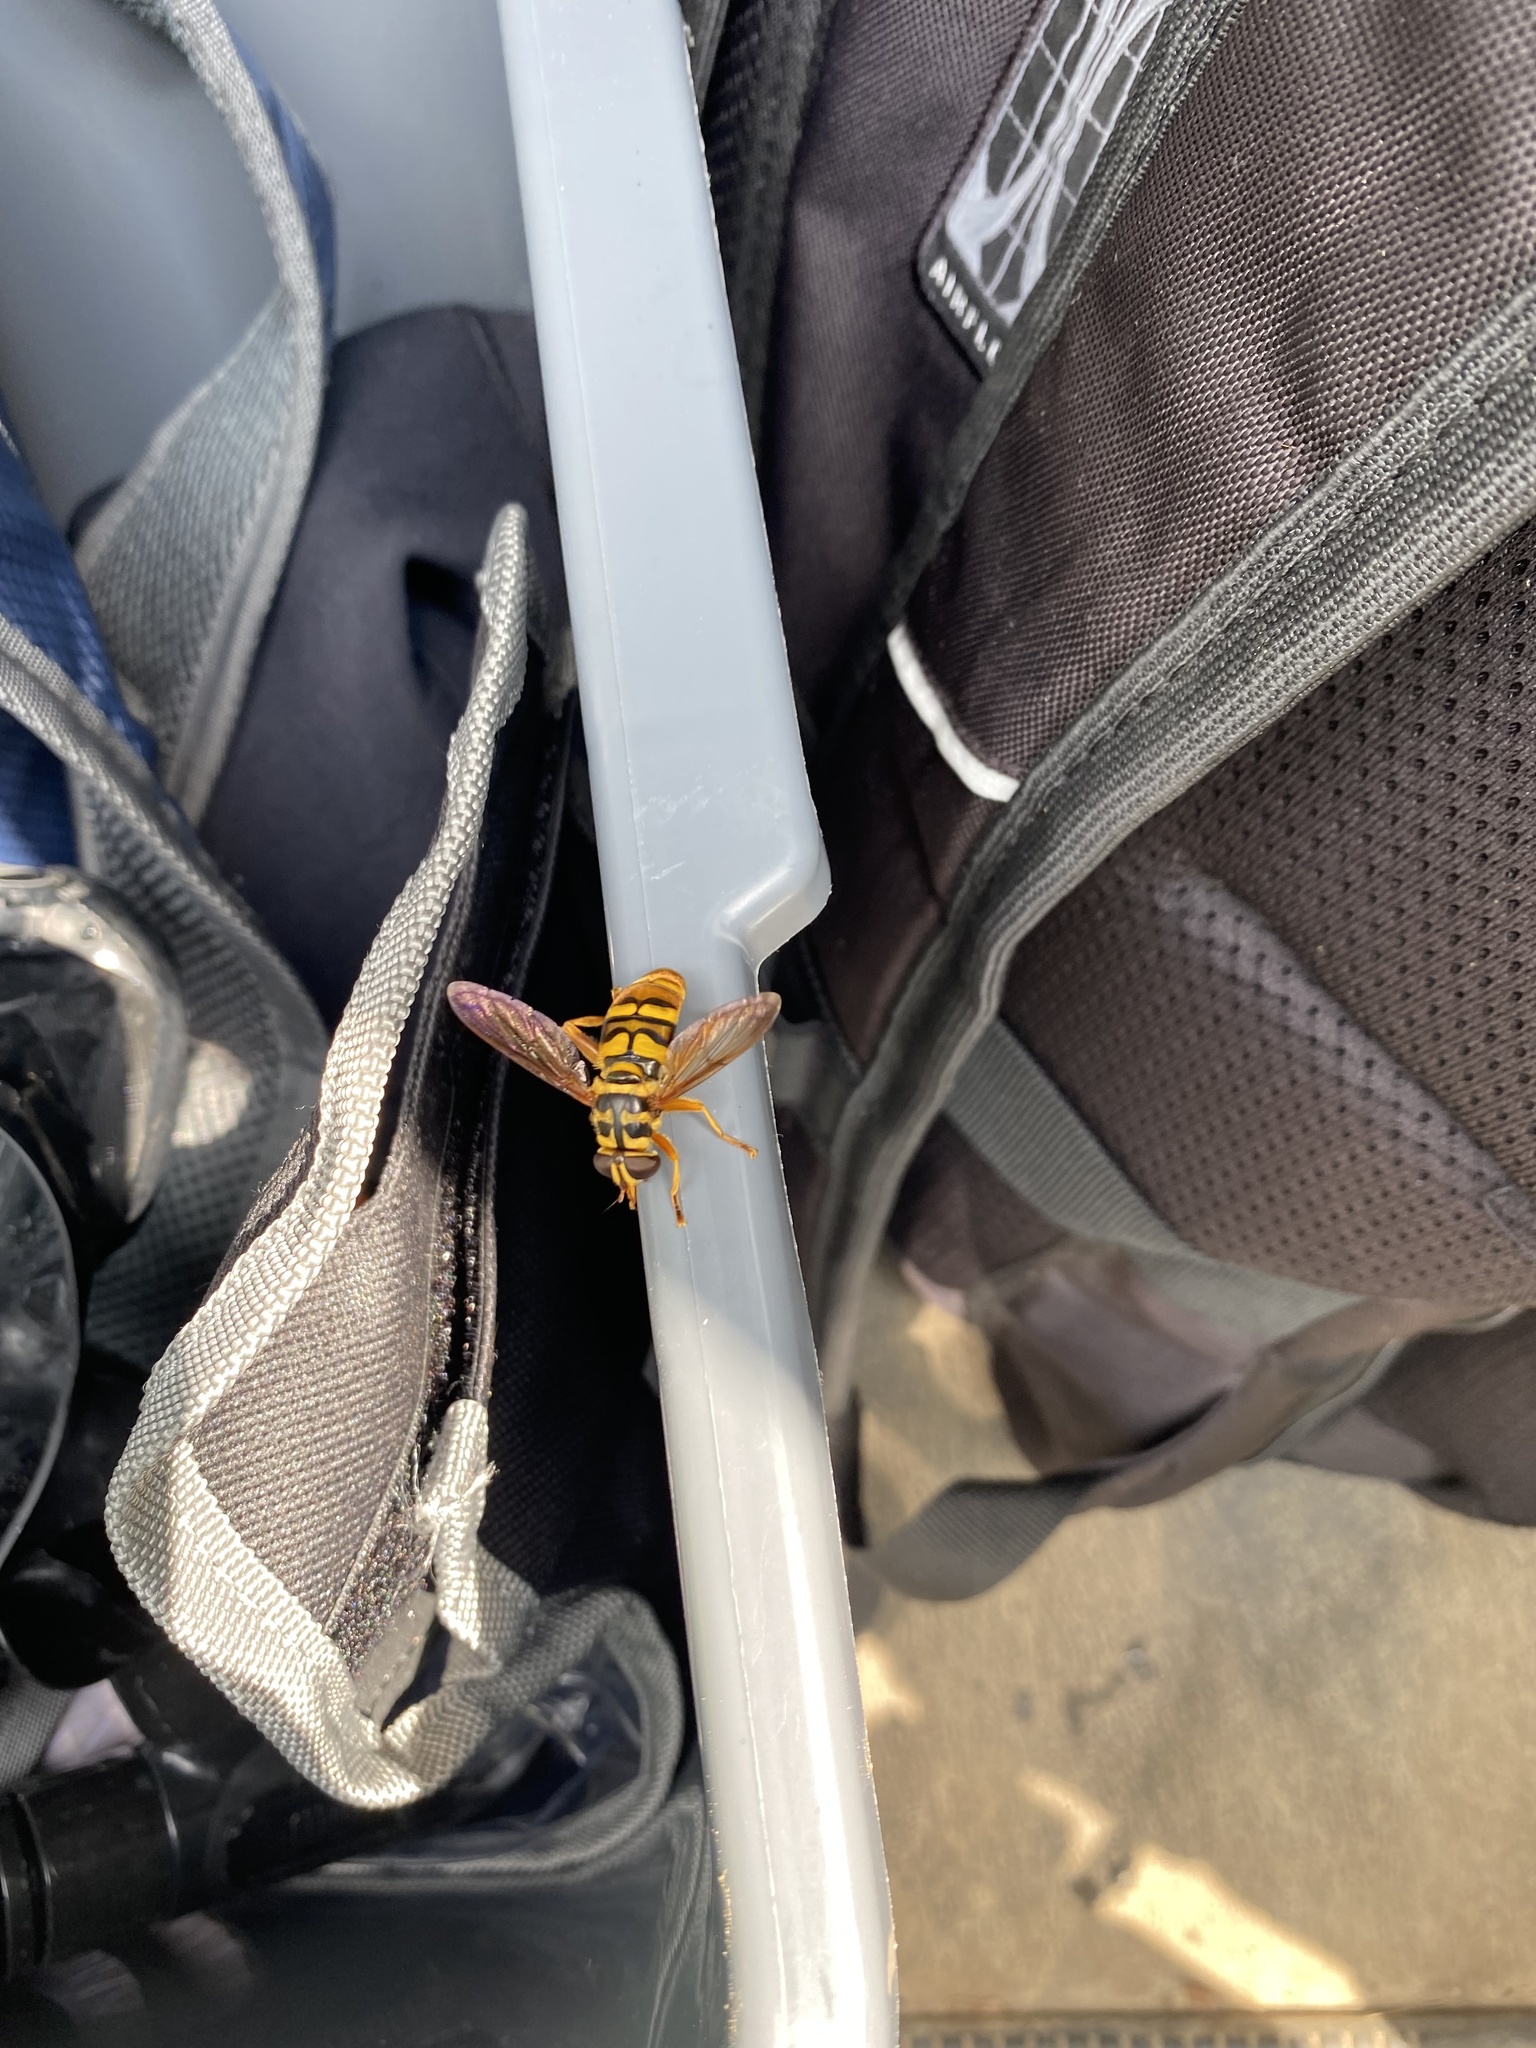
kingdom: Animalia
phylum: Arthropoda
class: Insecta
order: Diptera
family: Syrphidae
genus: Milesia
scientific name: Milesia virginiensis
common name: Virginia giant
